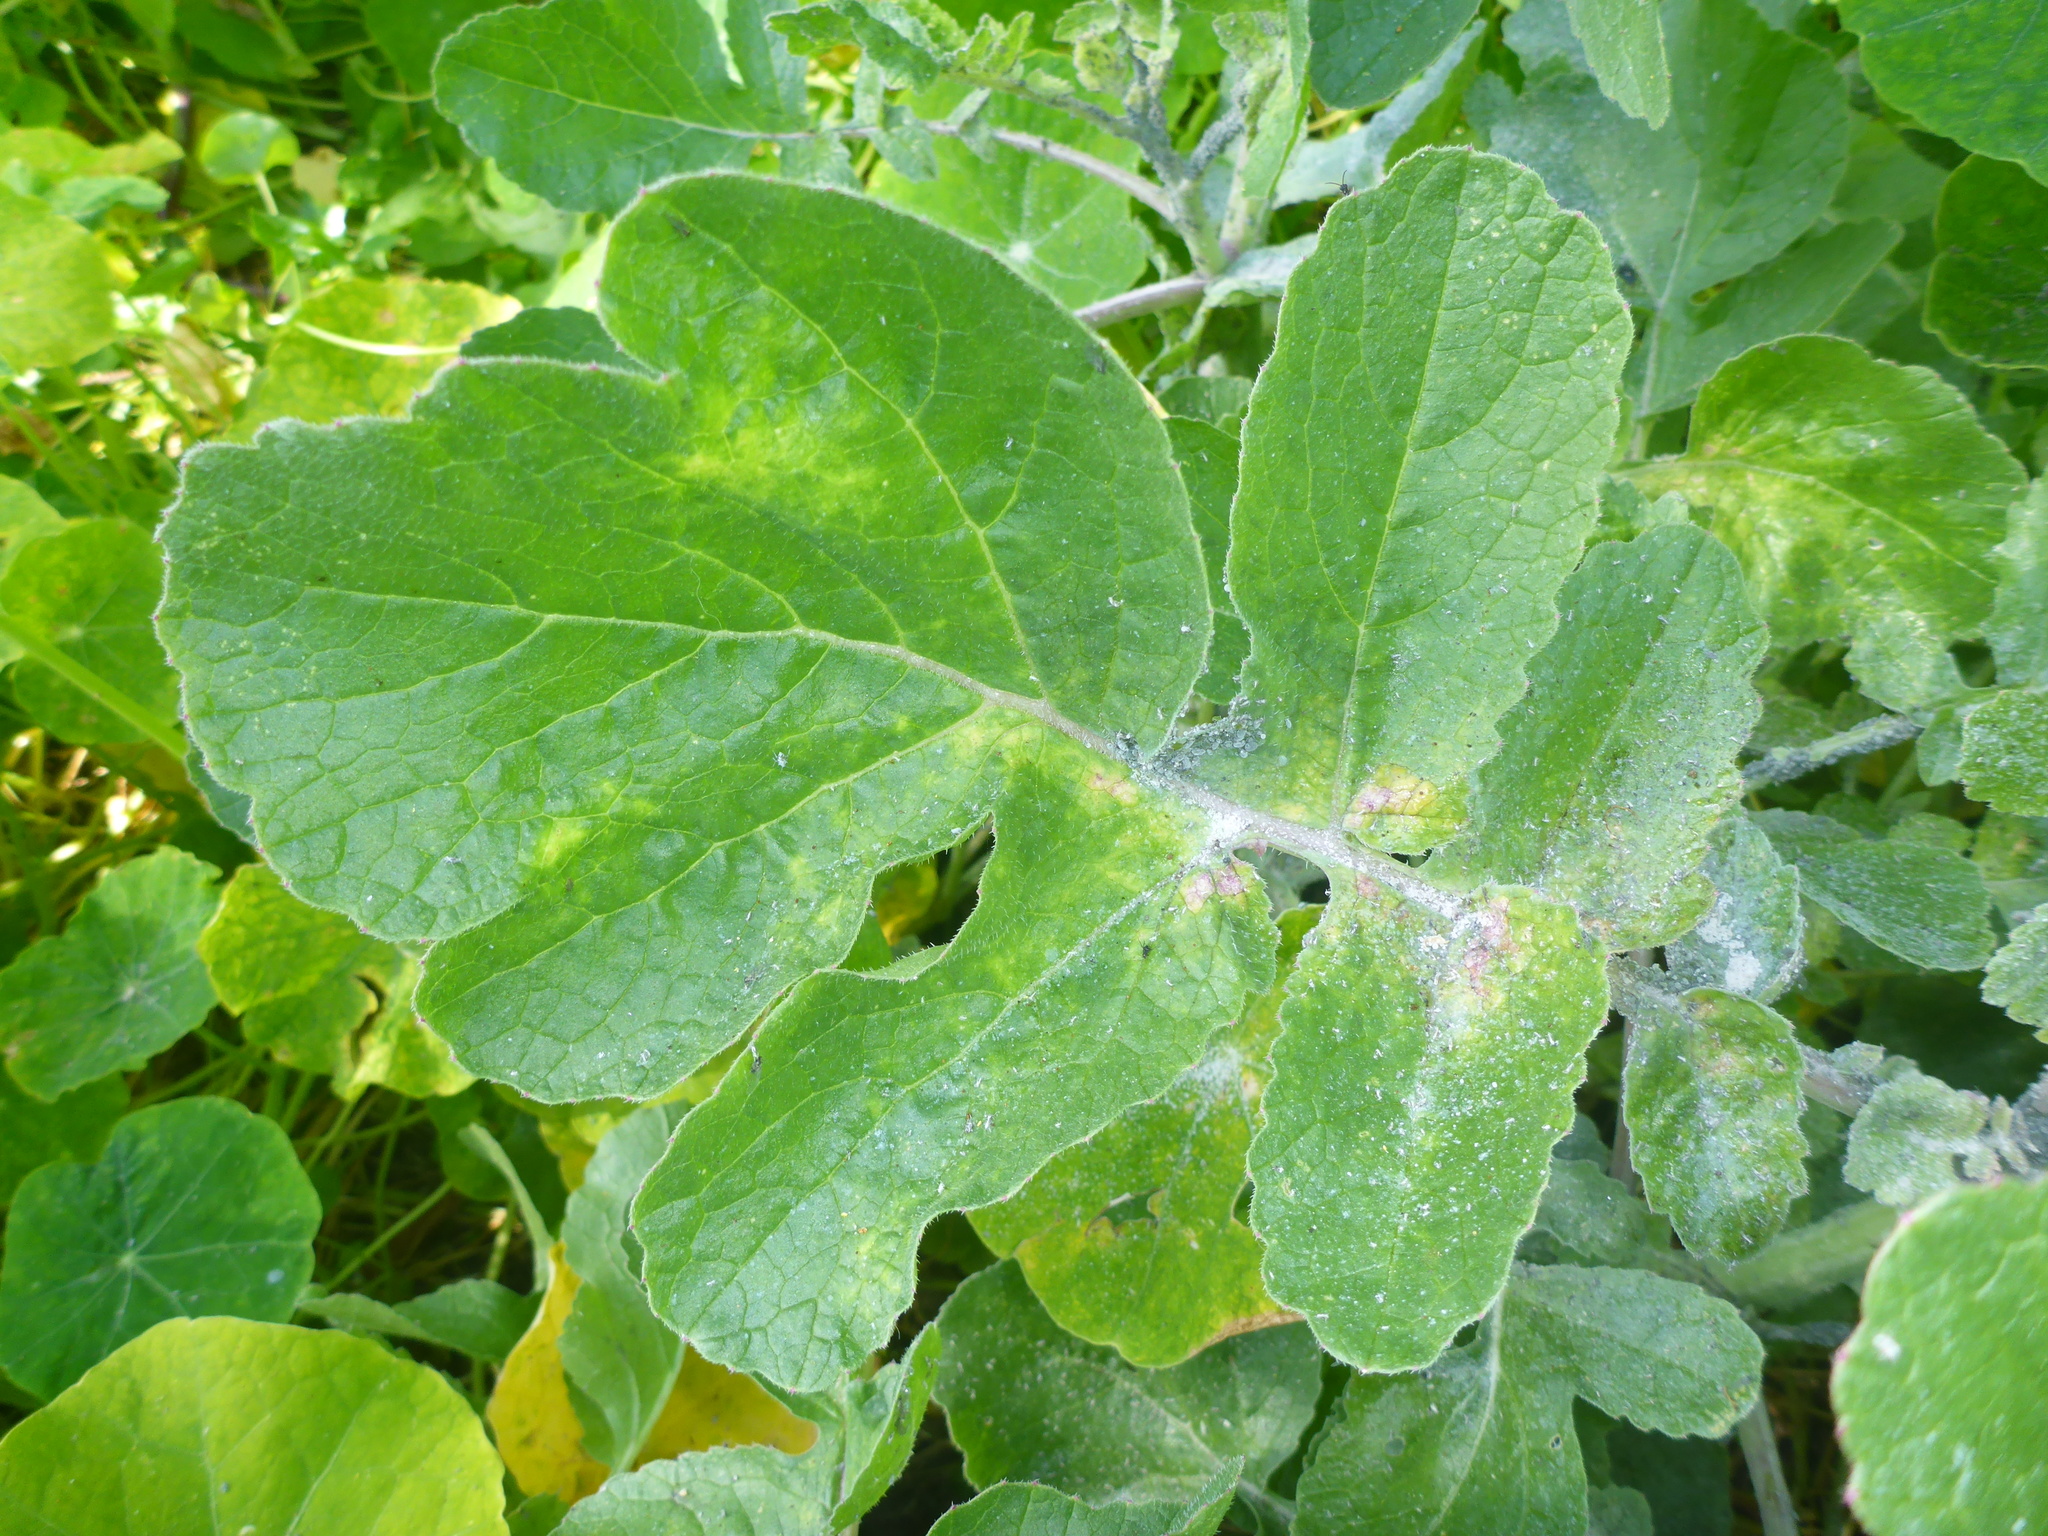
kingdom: Animalia
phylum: Arthropoda
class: Insecta
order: Hemiptera
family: Aphididae
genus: Brevicoryne
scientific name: Brevicoryne brassicae
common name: Cabbage aphid
